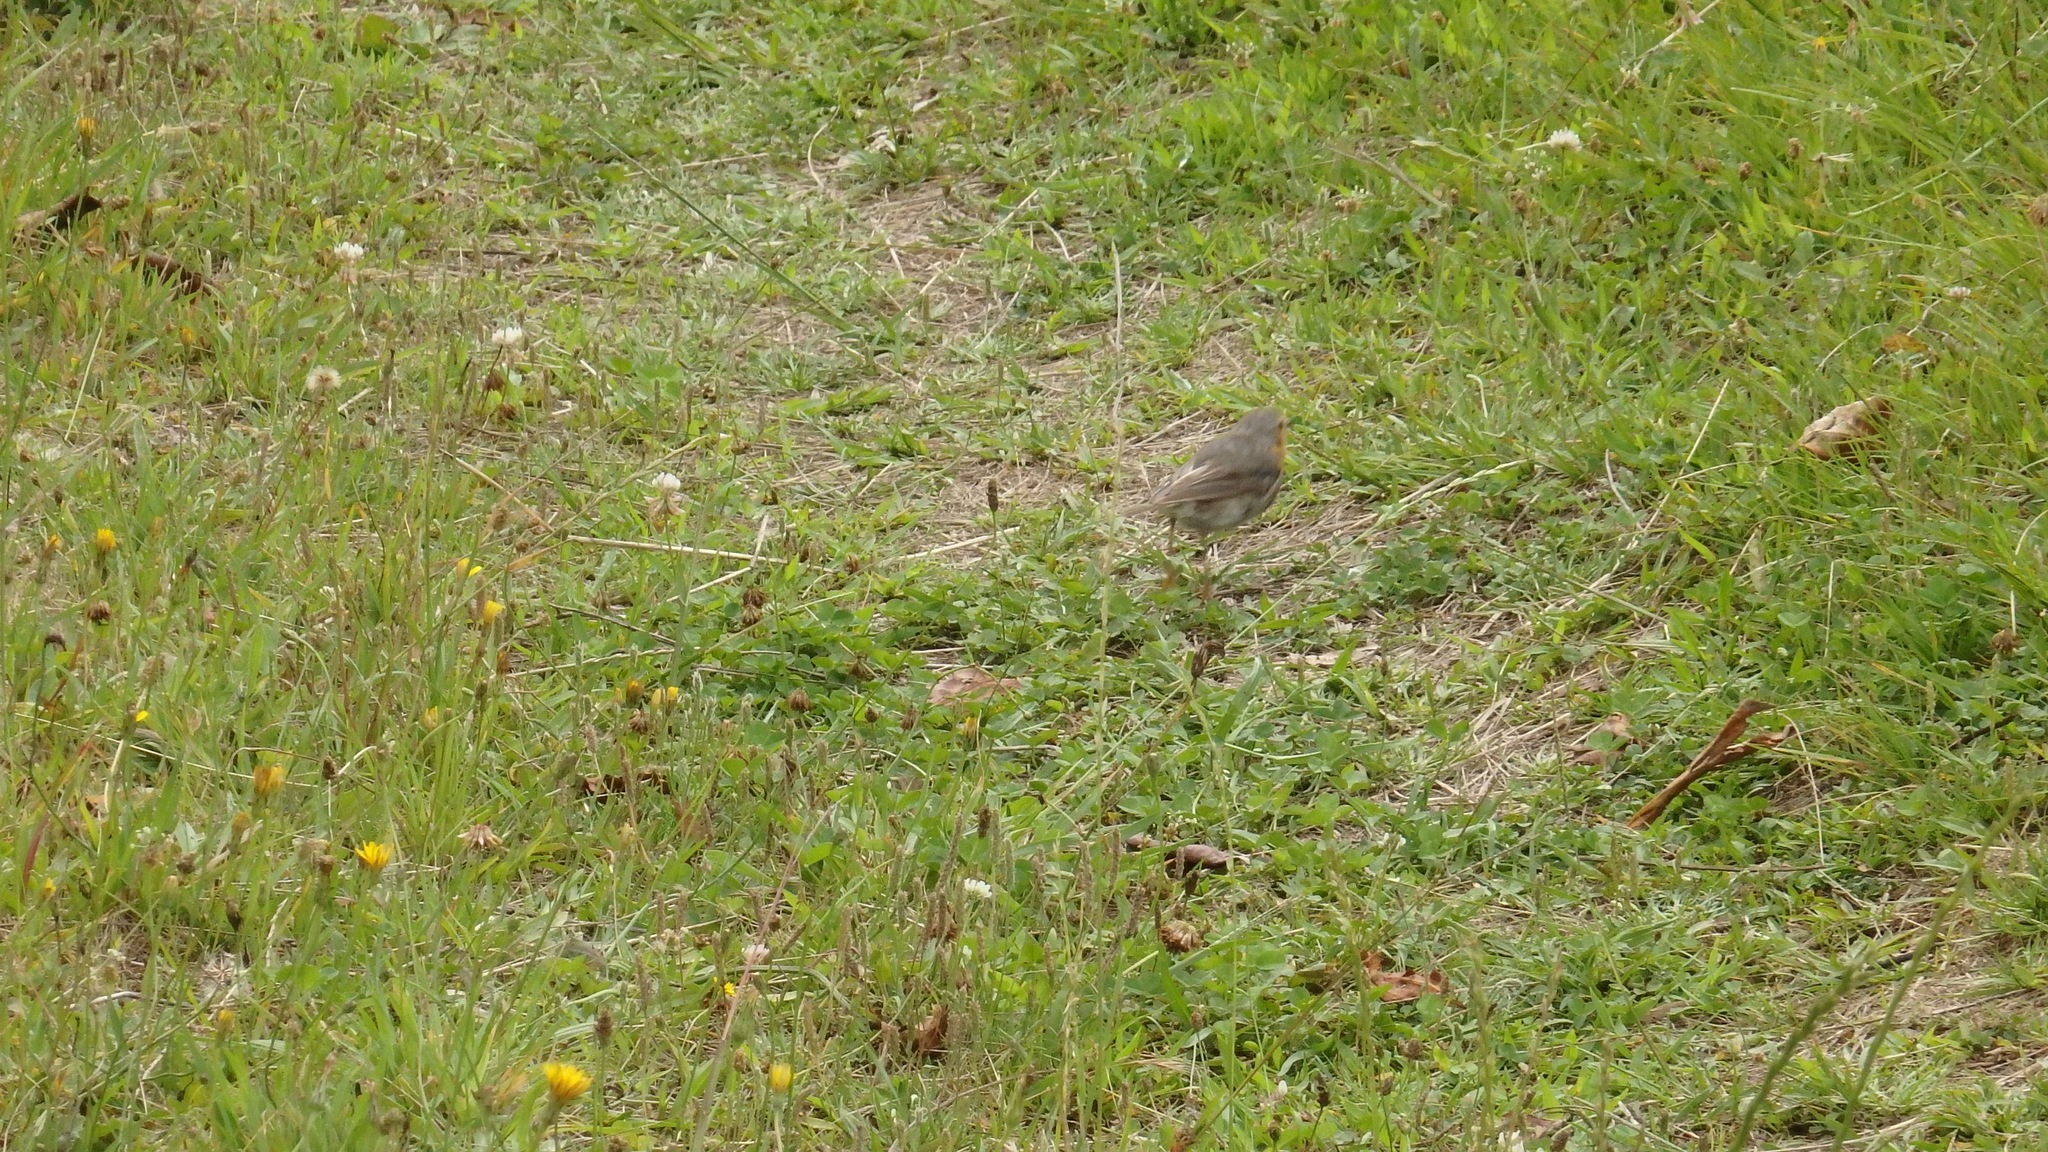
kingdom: Animalia
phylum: Chordata
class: Aves
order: Passeriformes
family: Muscicapidae
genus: Erithacus
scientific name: Erithacus rubecula
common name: European robin
